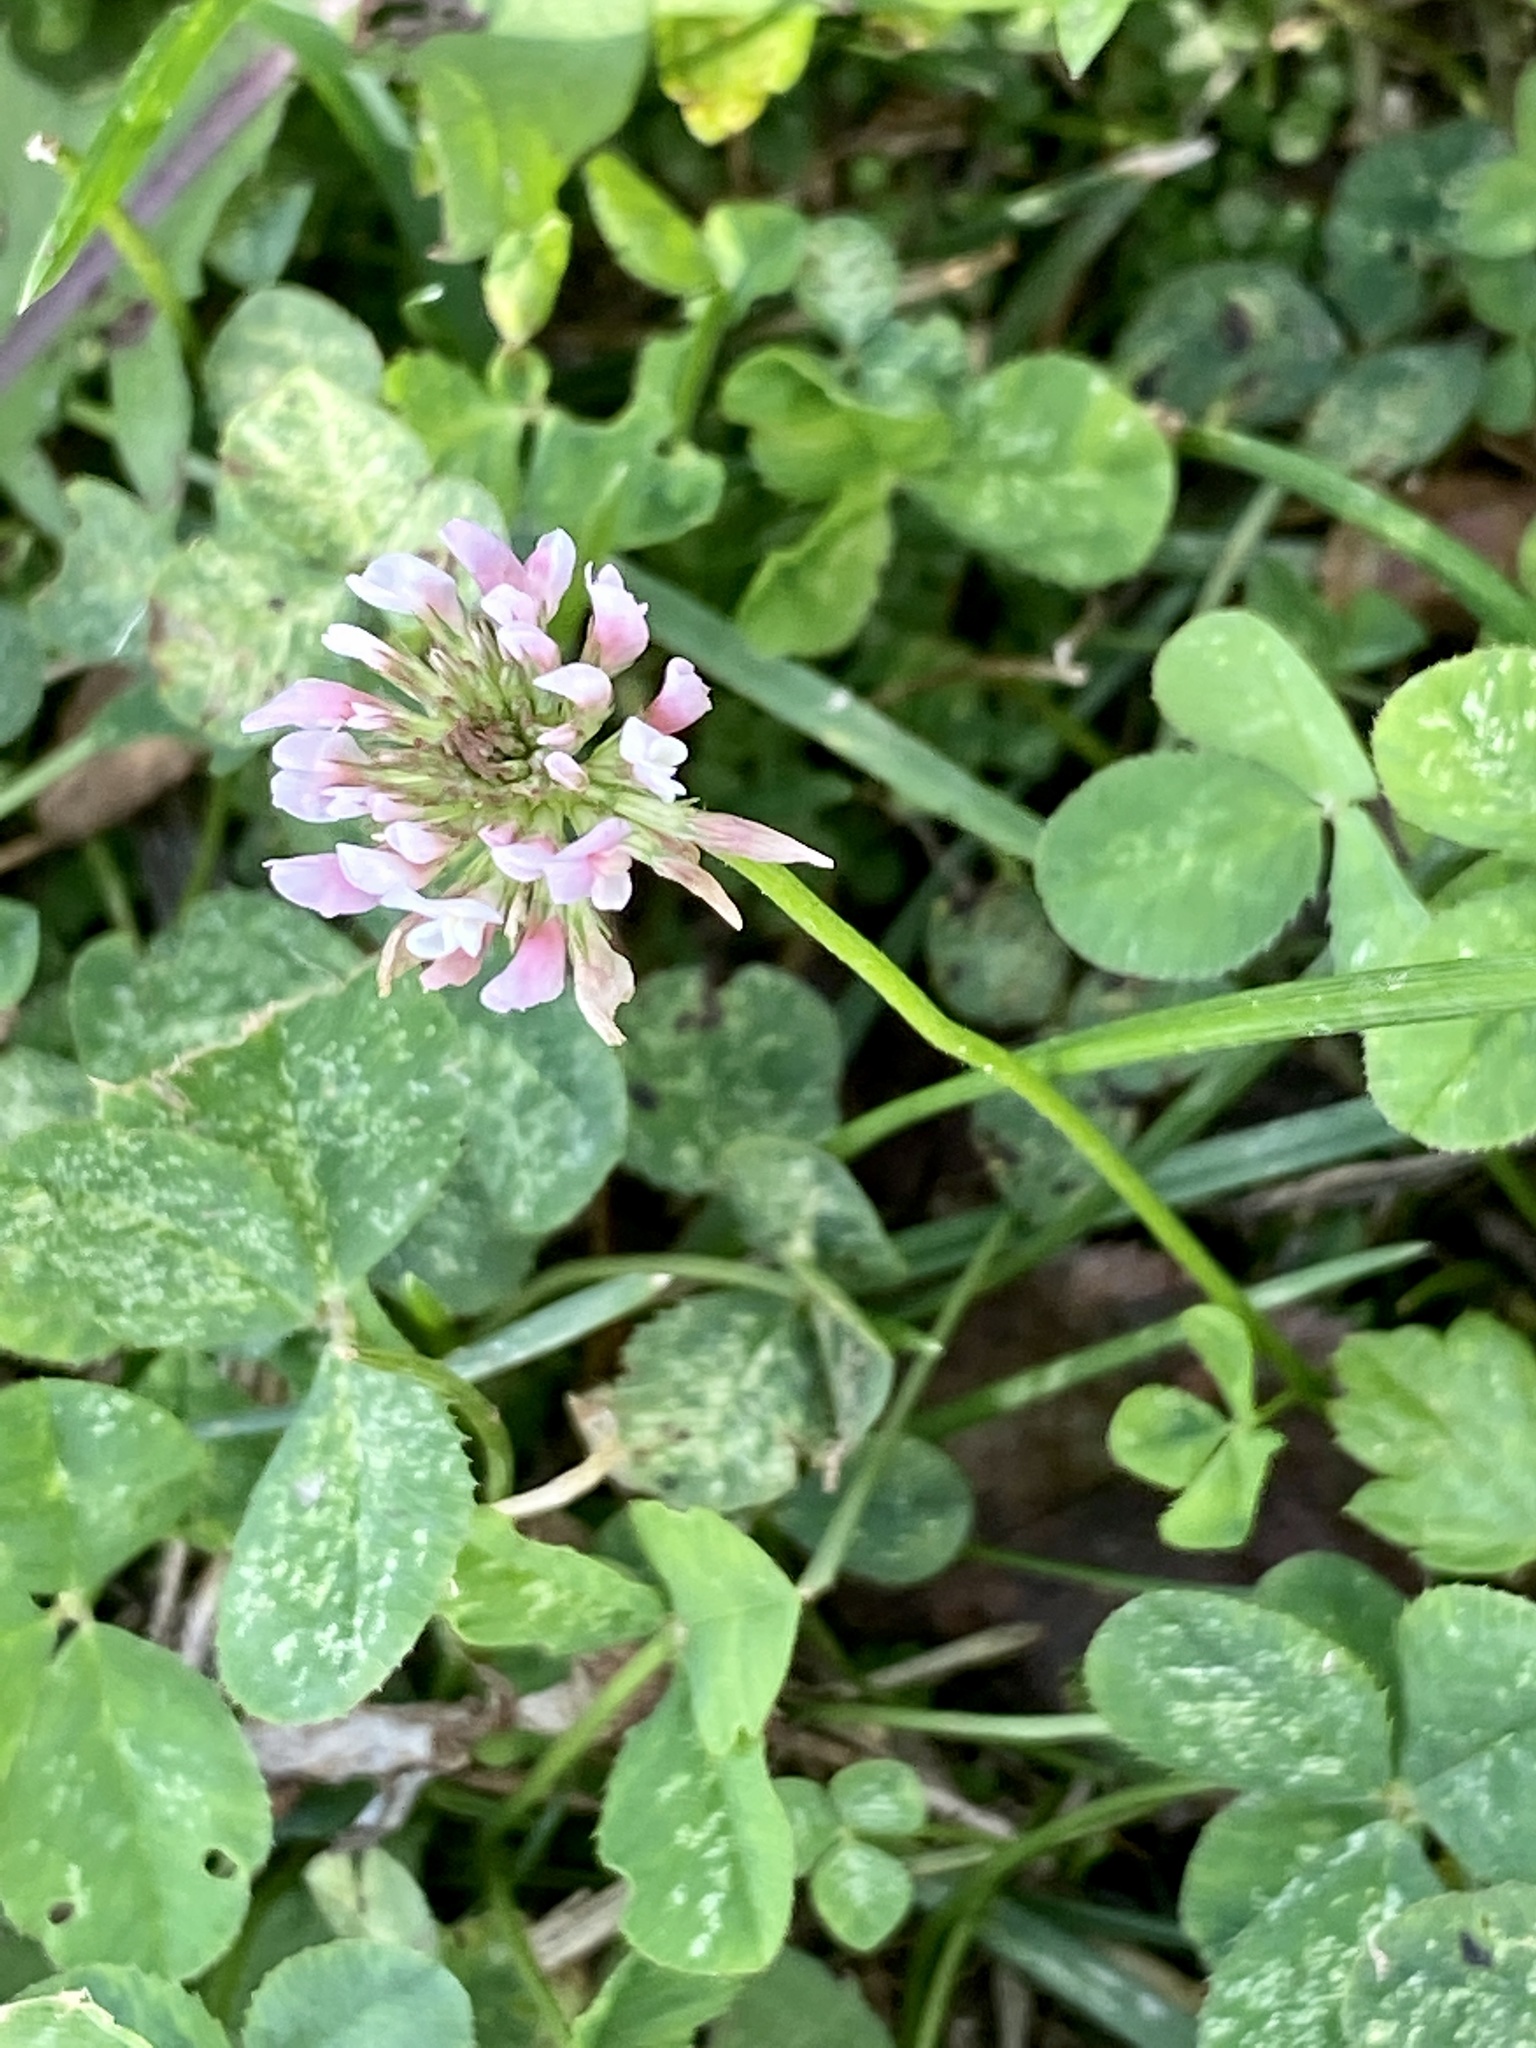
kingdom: Plantae
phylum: Tracheophyta
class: Magnoliopsida
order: Fabales
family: Fabaceae
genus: Trifolium
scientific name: Trifolium repens
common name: White clover
